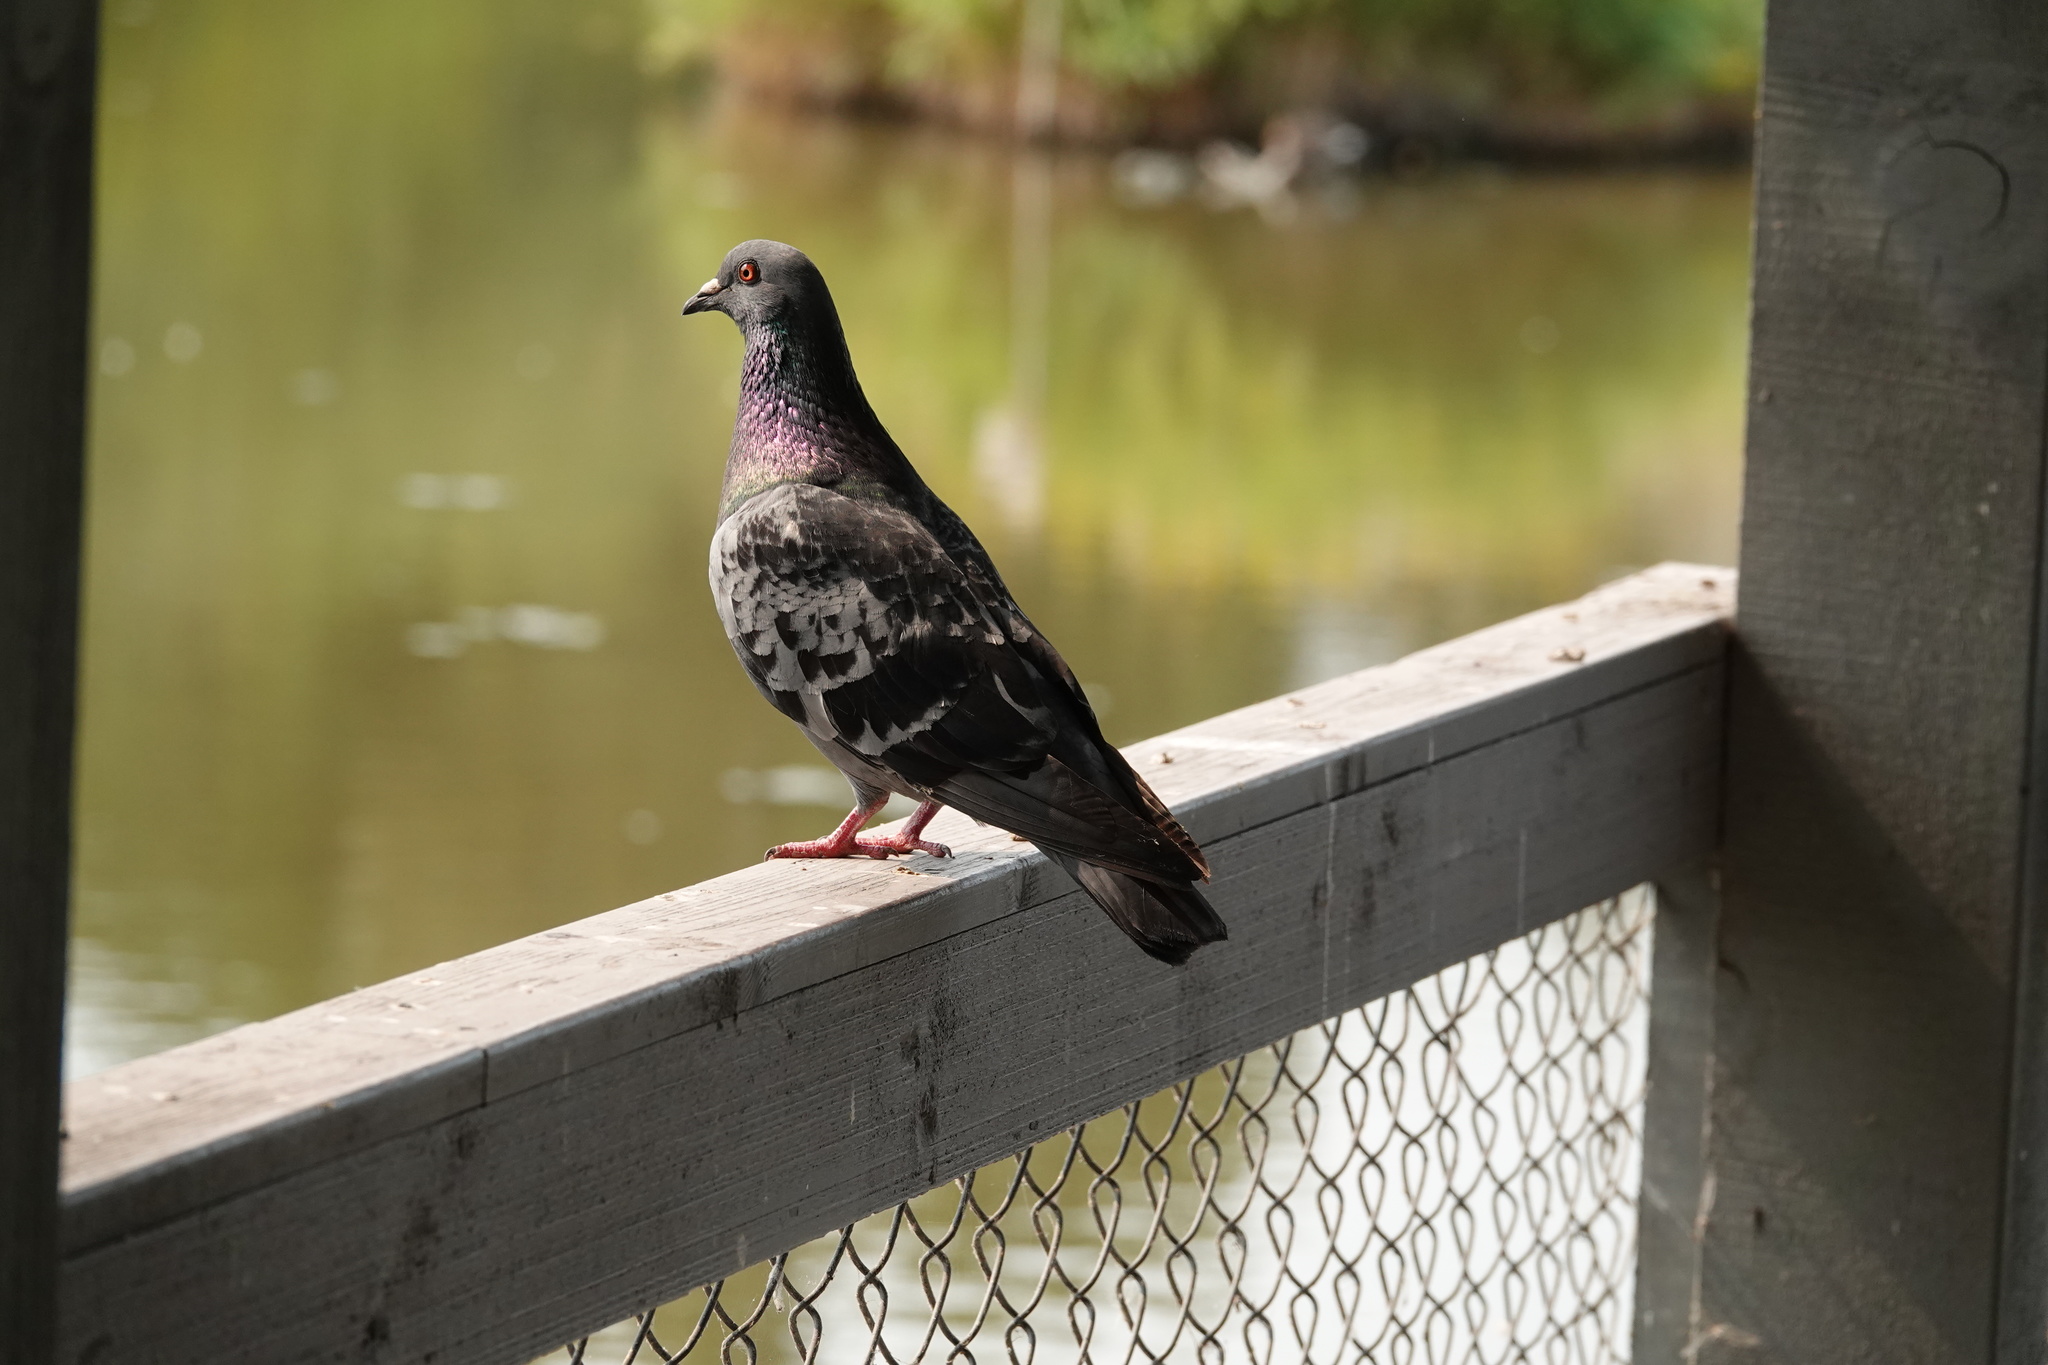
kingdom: Animalia
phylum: Chordata
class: Aves
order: Columbiformes
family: Columbidae
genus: Columba
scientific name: Columba livia
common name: Rock pigeon
